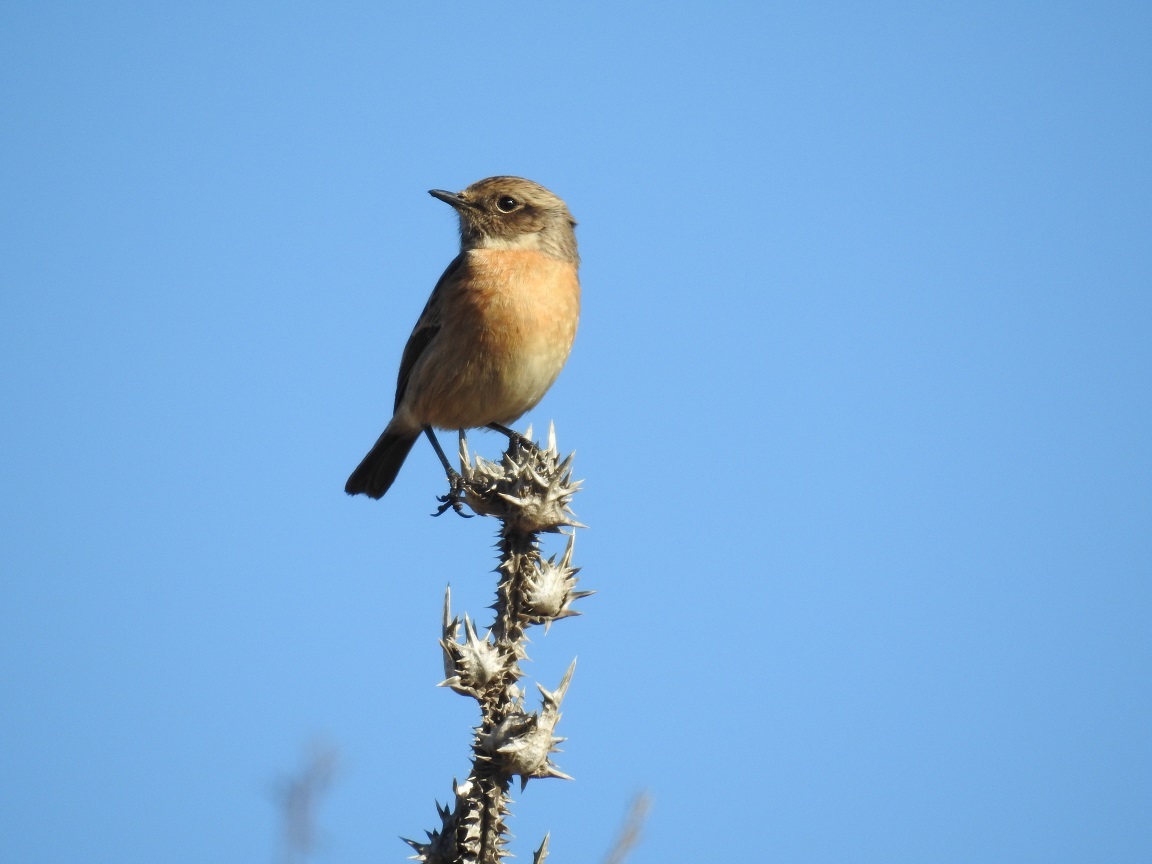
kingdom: Animalia
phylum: Chordata
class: Aves
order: Passeriformes
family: Muscicapidae
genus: Saxicola
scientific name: Saxicola rubicola
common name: European stonechat
